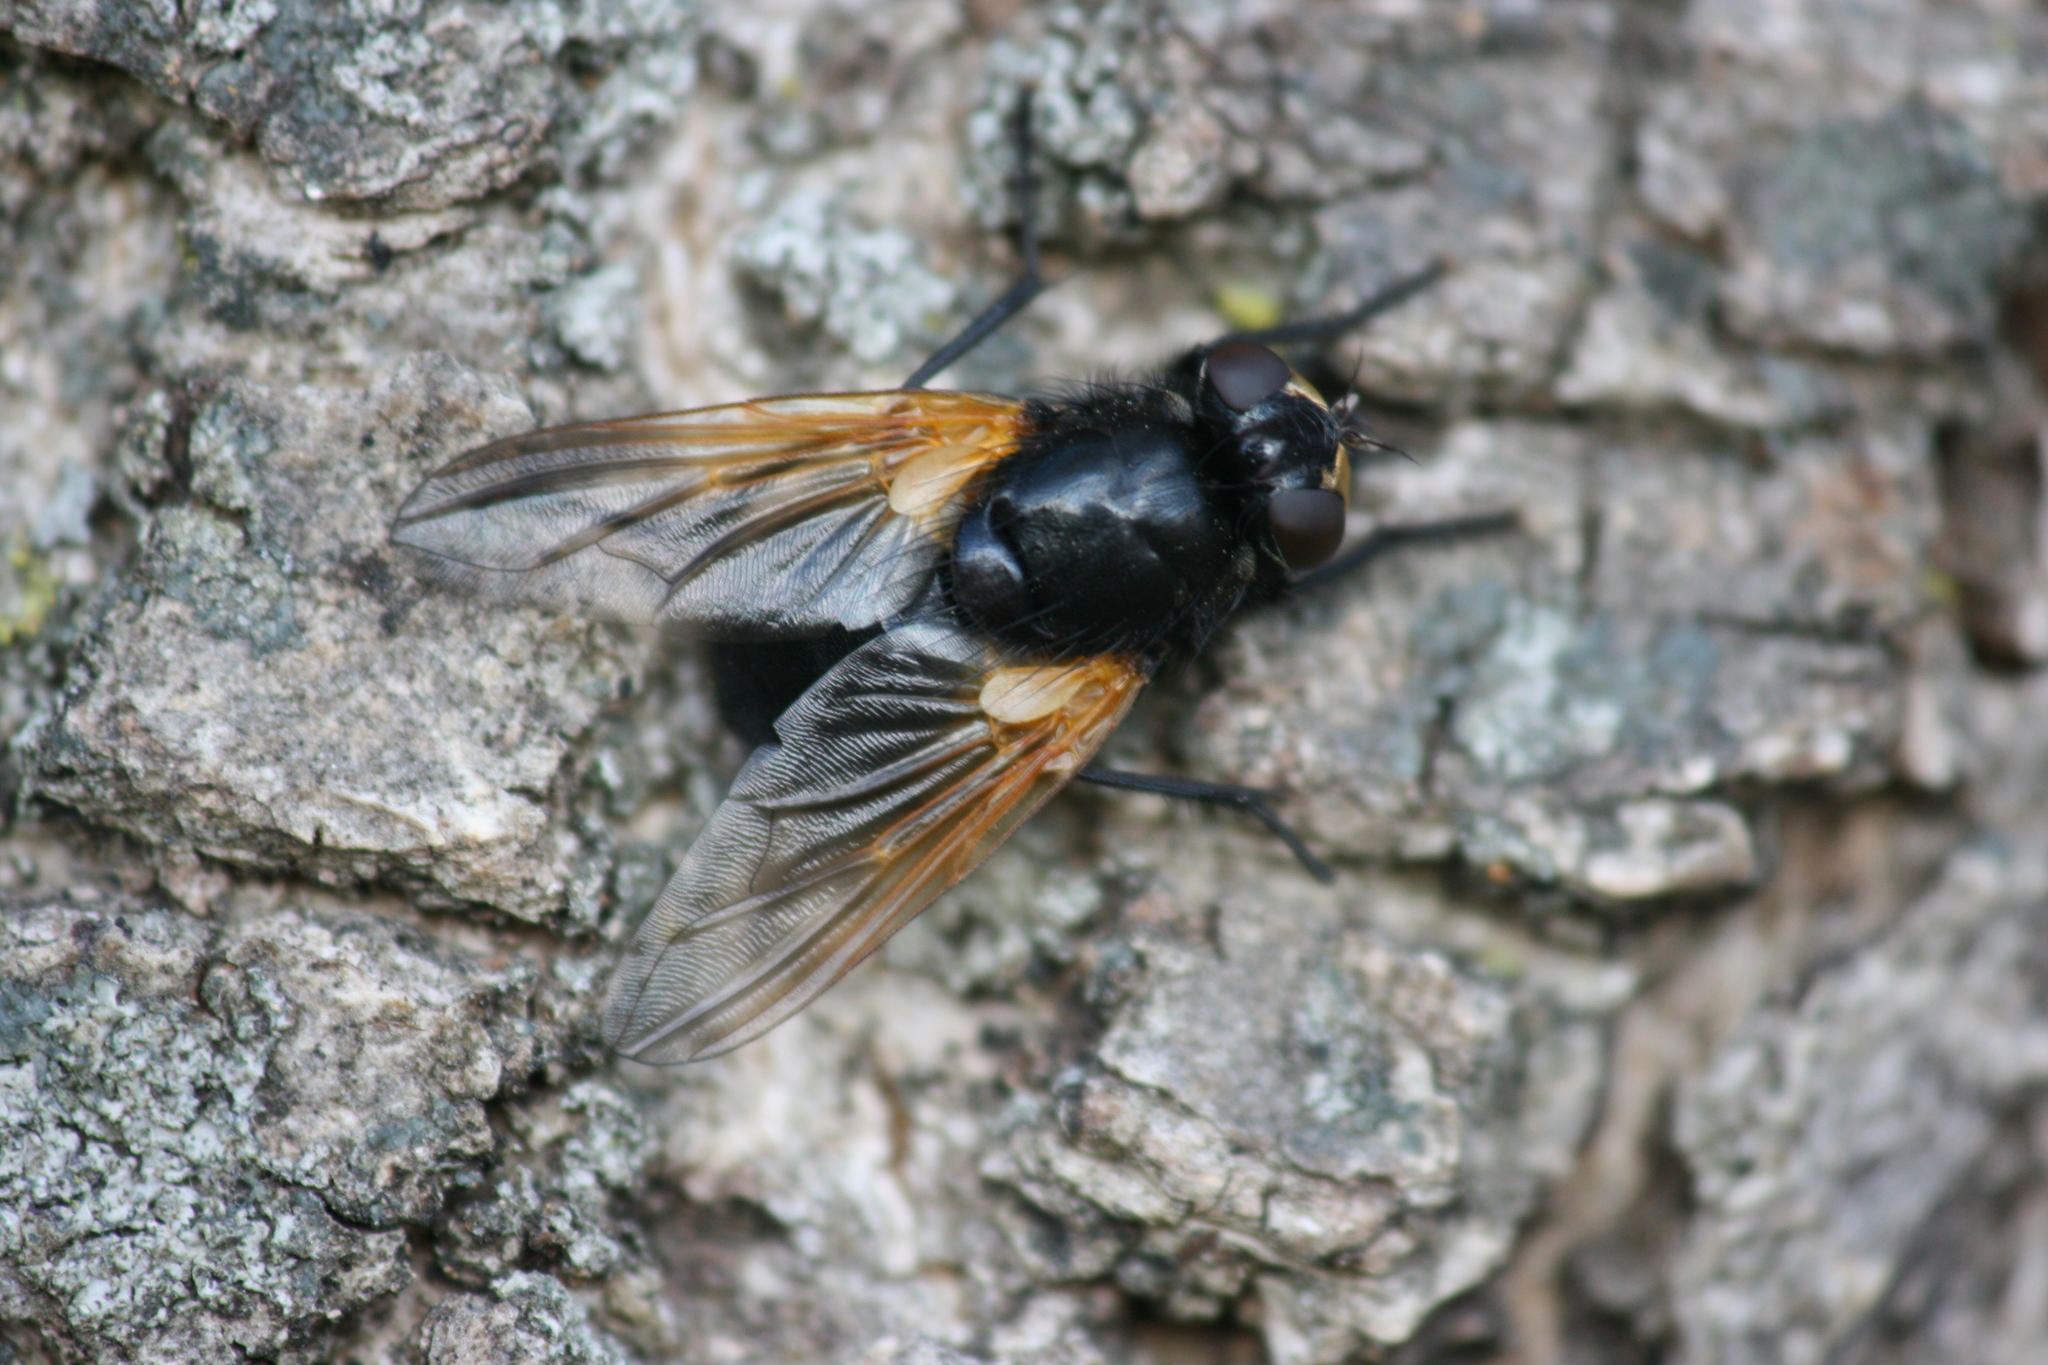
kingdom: Animalia
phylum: Arthropoda
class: Insecta
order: Diptera
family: Muscidae
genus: Mesembrina
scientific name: Mesembrina meridiana
